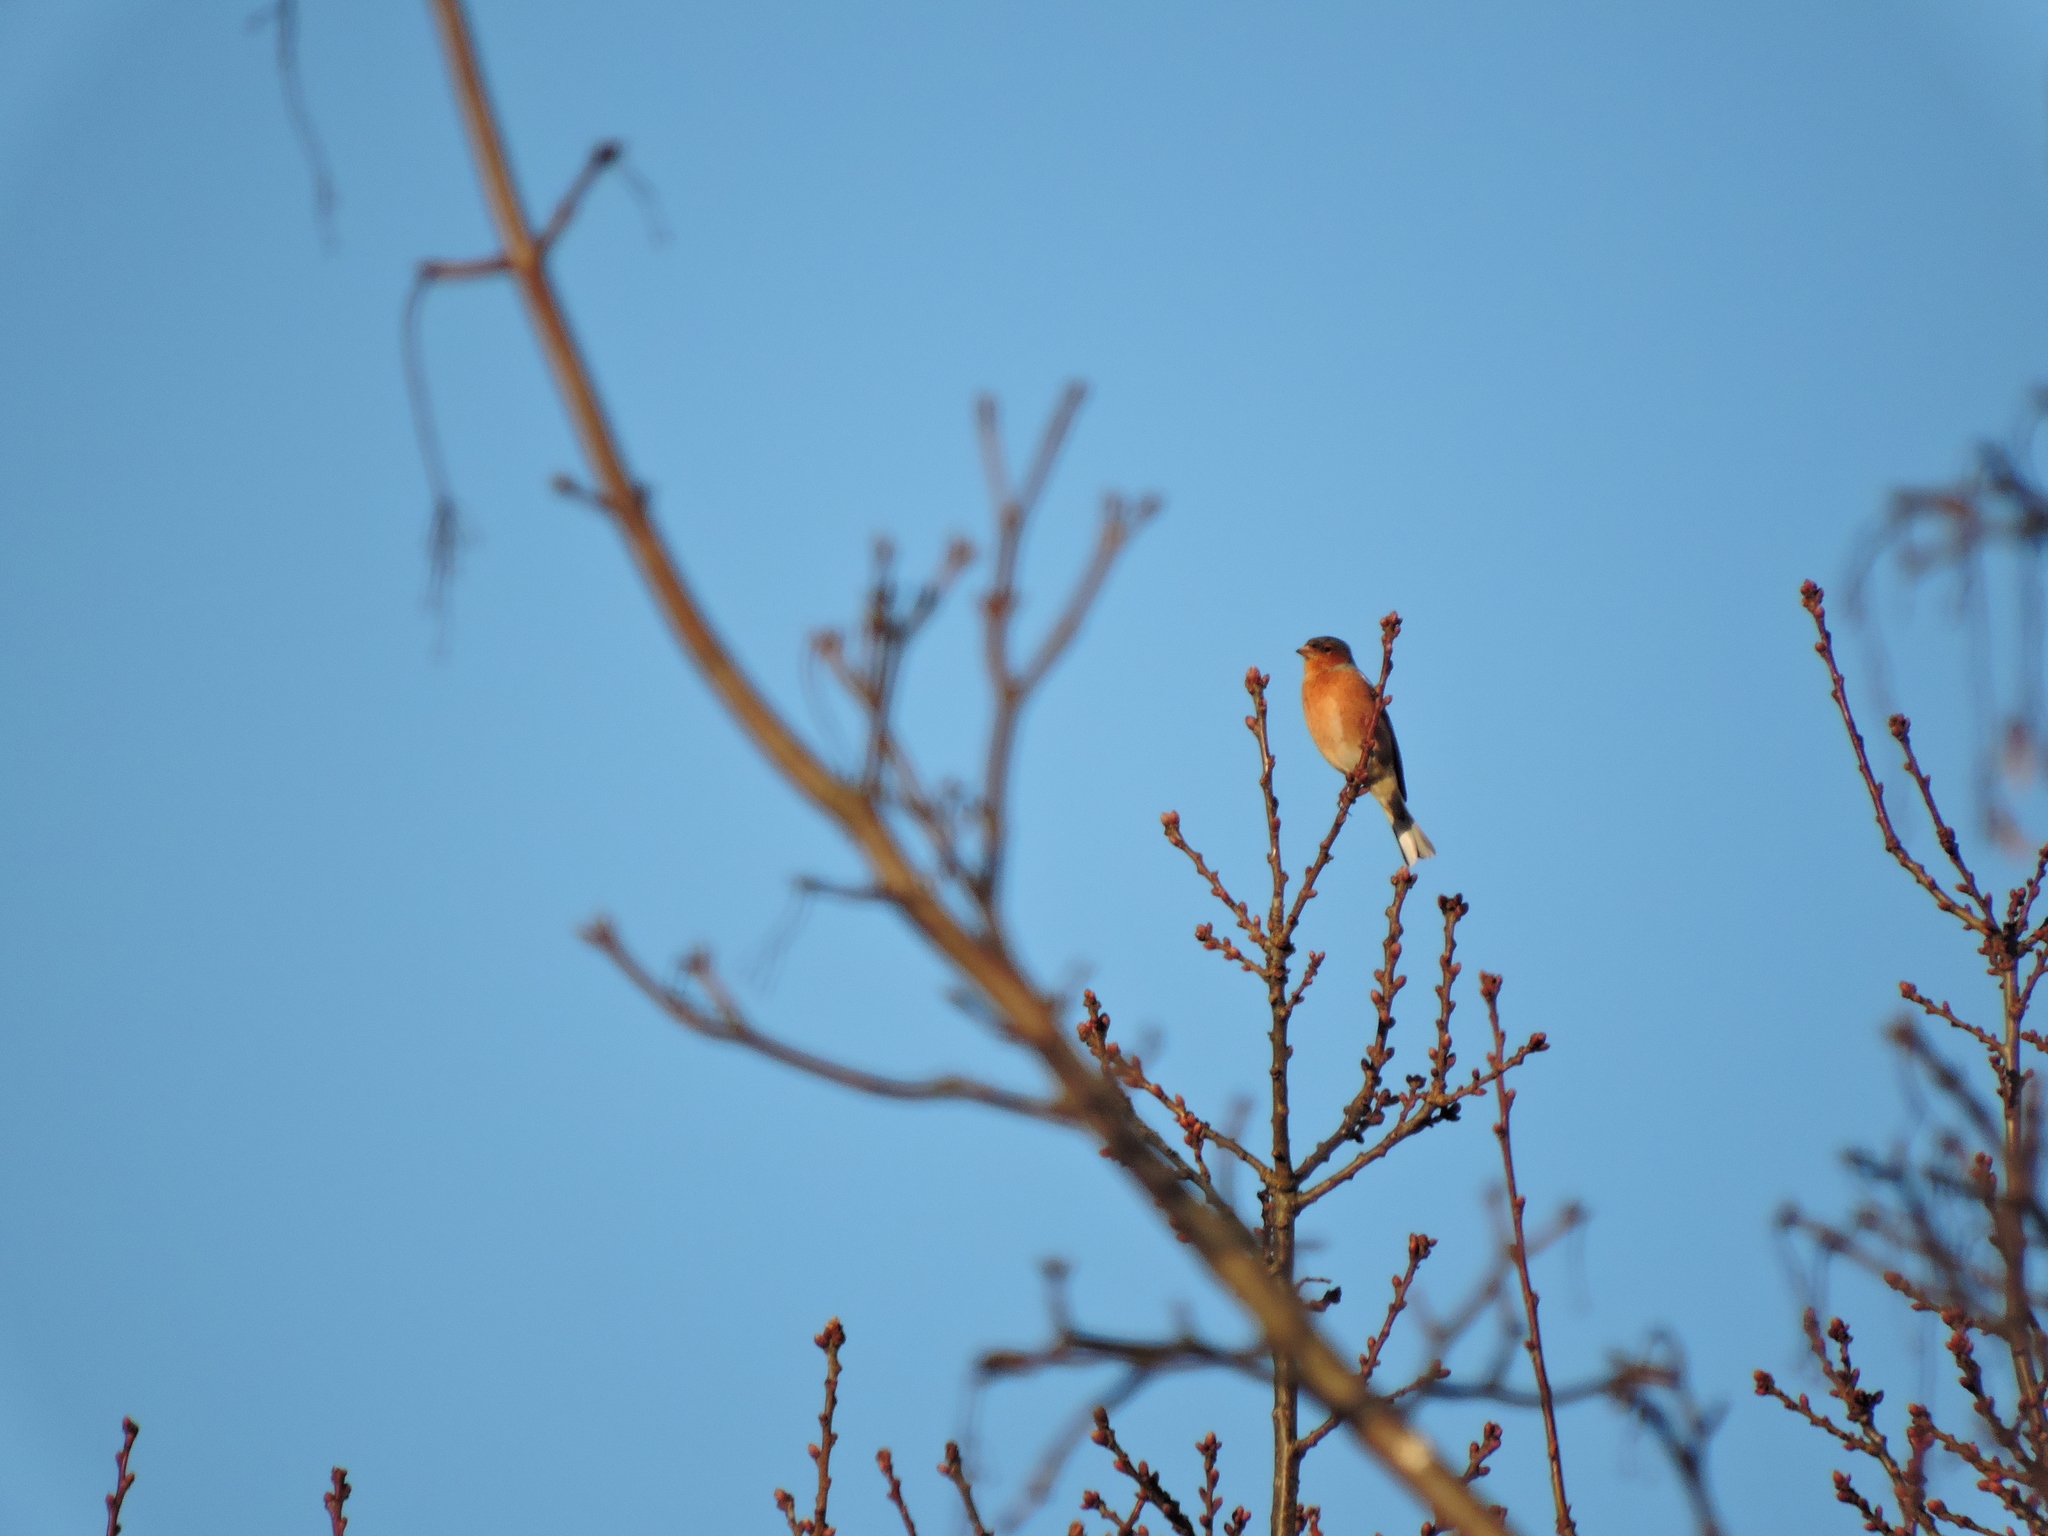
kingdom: Animalia
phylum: Chordata
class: Aves
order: Passeriformes
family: Fringillidae
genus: Fringilla
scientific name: Fringilla coelebs
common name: Common chaffinch
